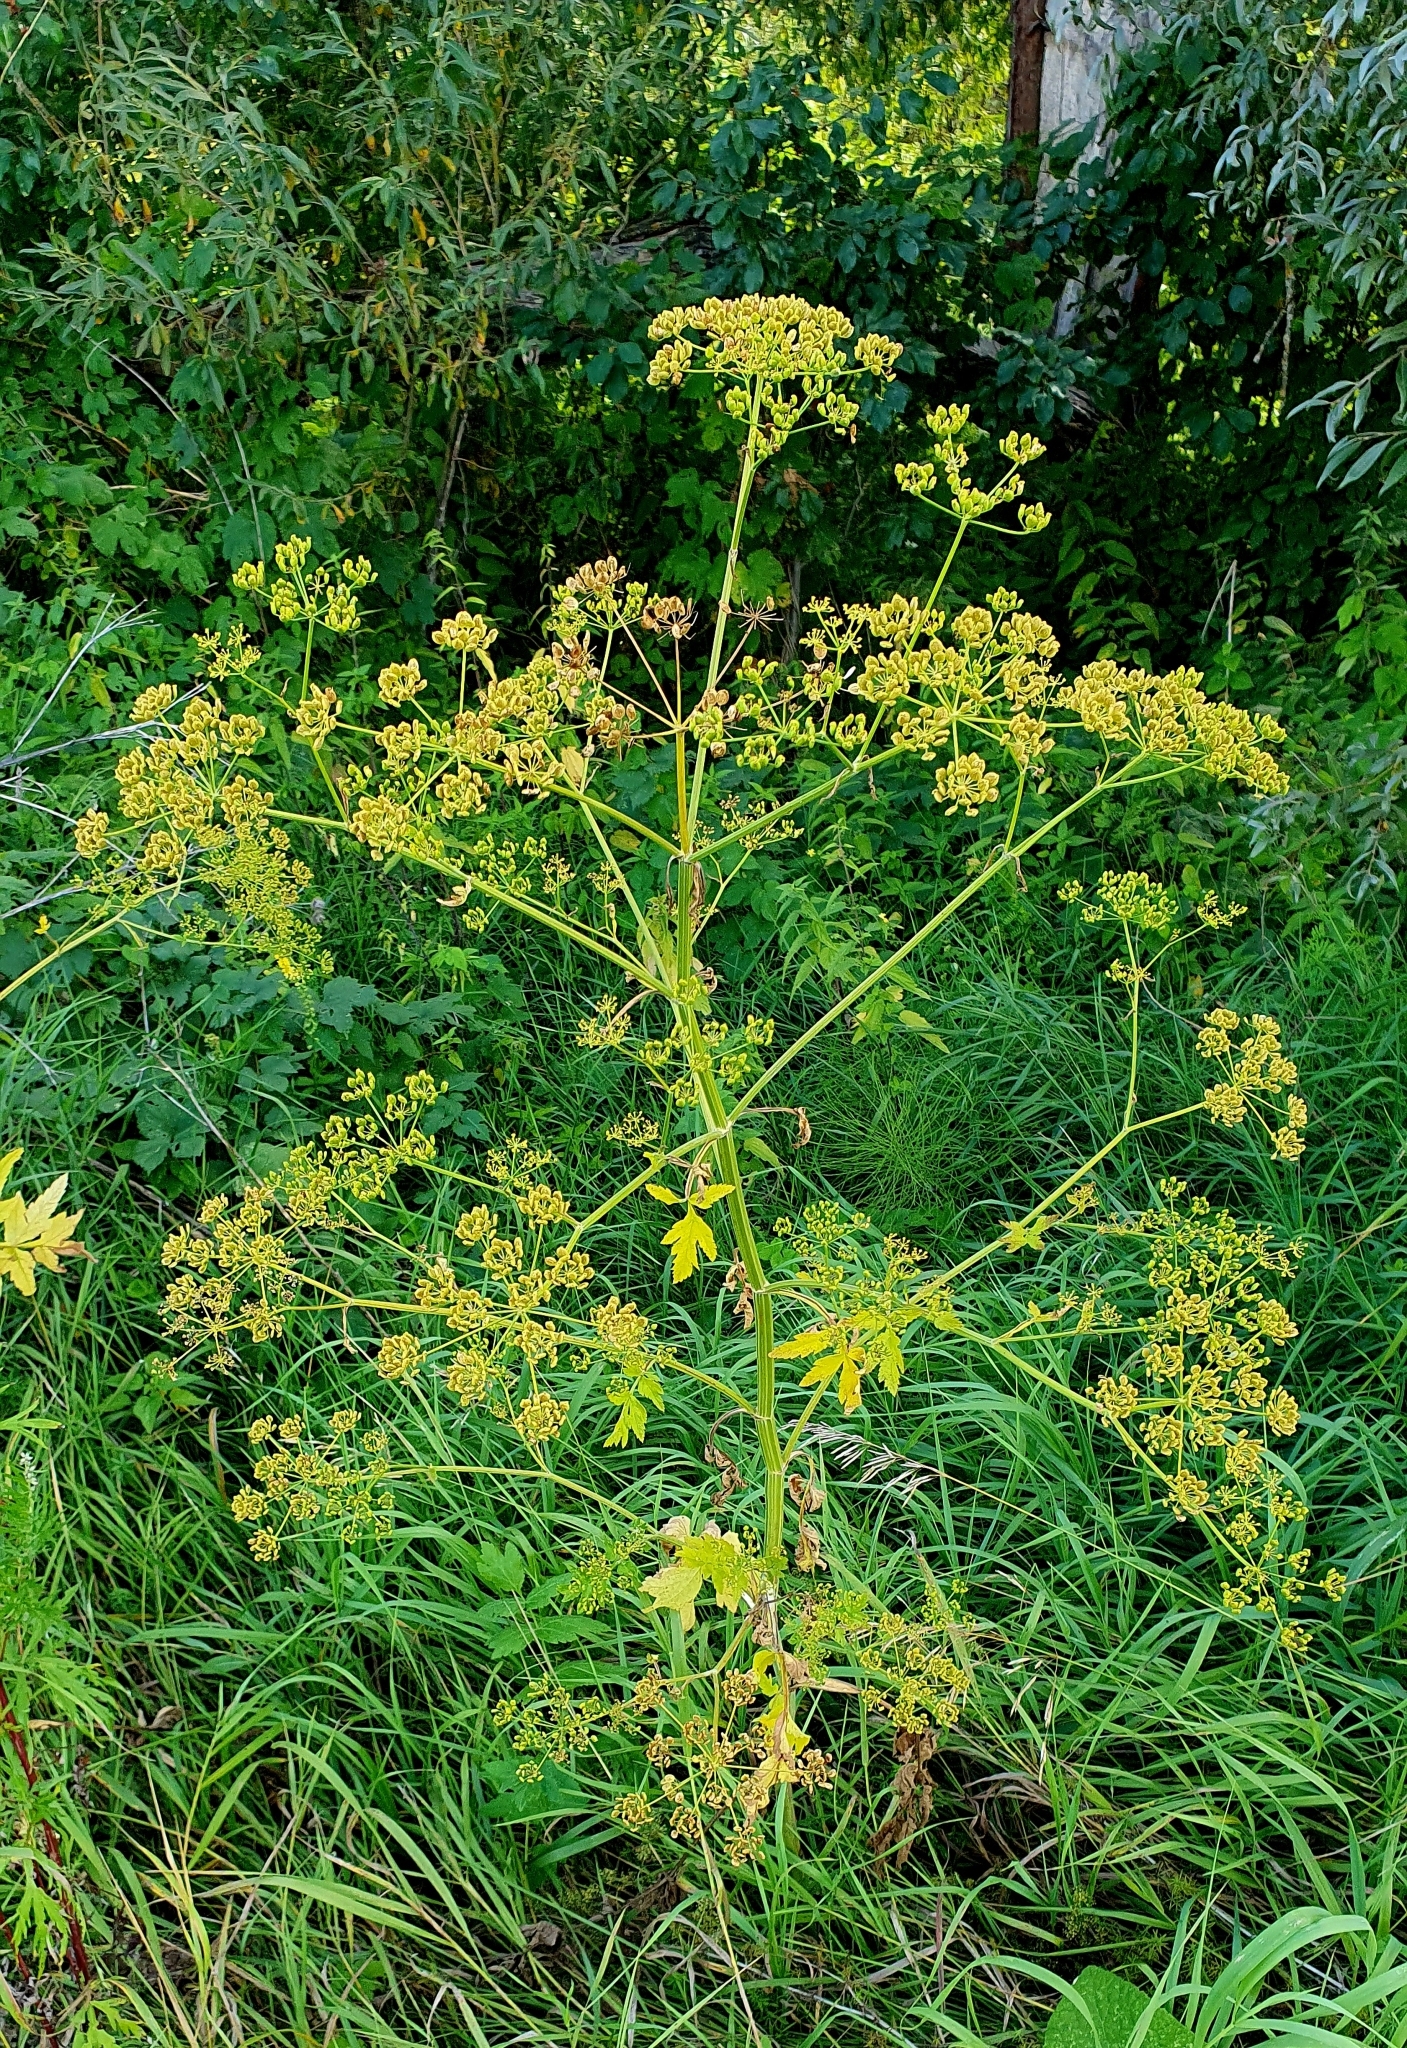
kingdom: Plantae
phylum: Tracheophyta
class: Magnoliopsida
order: Apiales
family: Apiaceae
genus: Pastinaca
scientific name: Pastinaca sativa
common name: Wild parsnip
